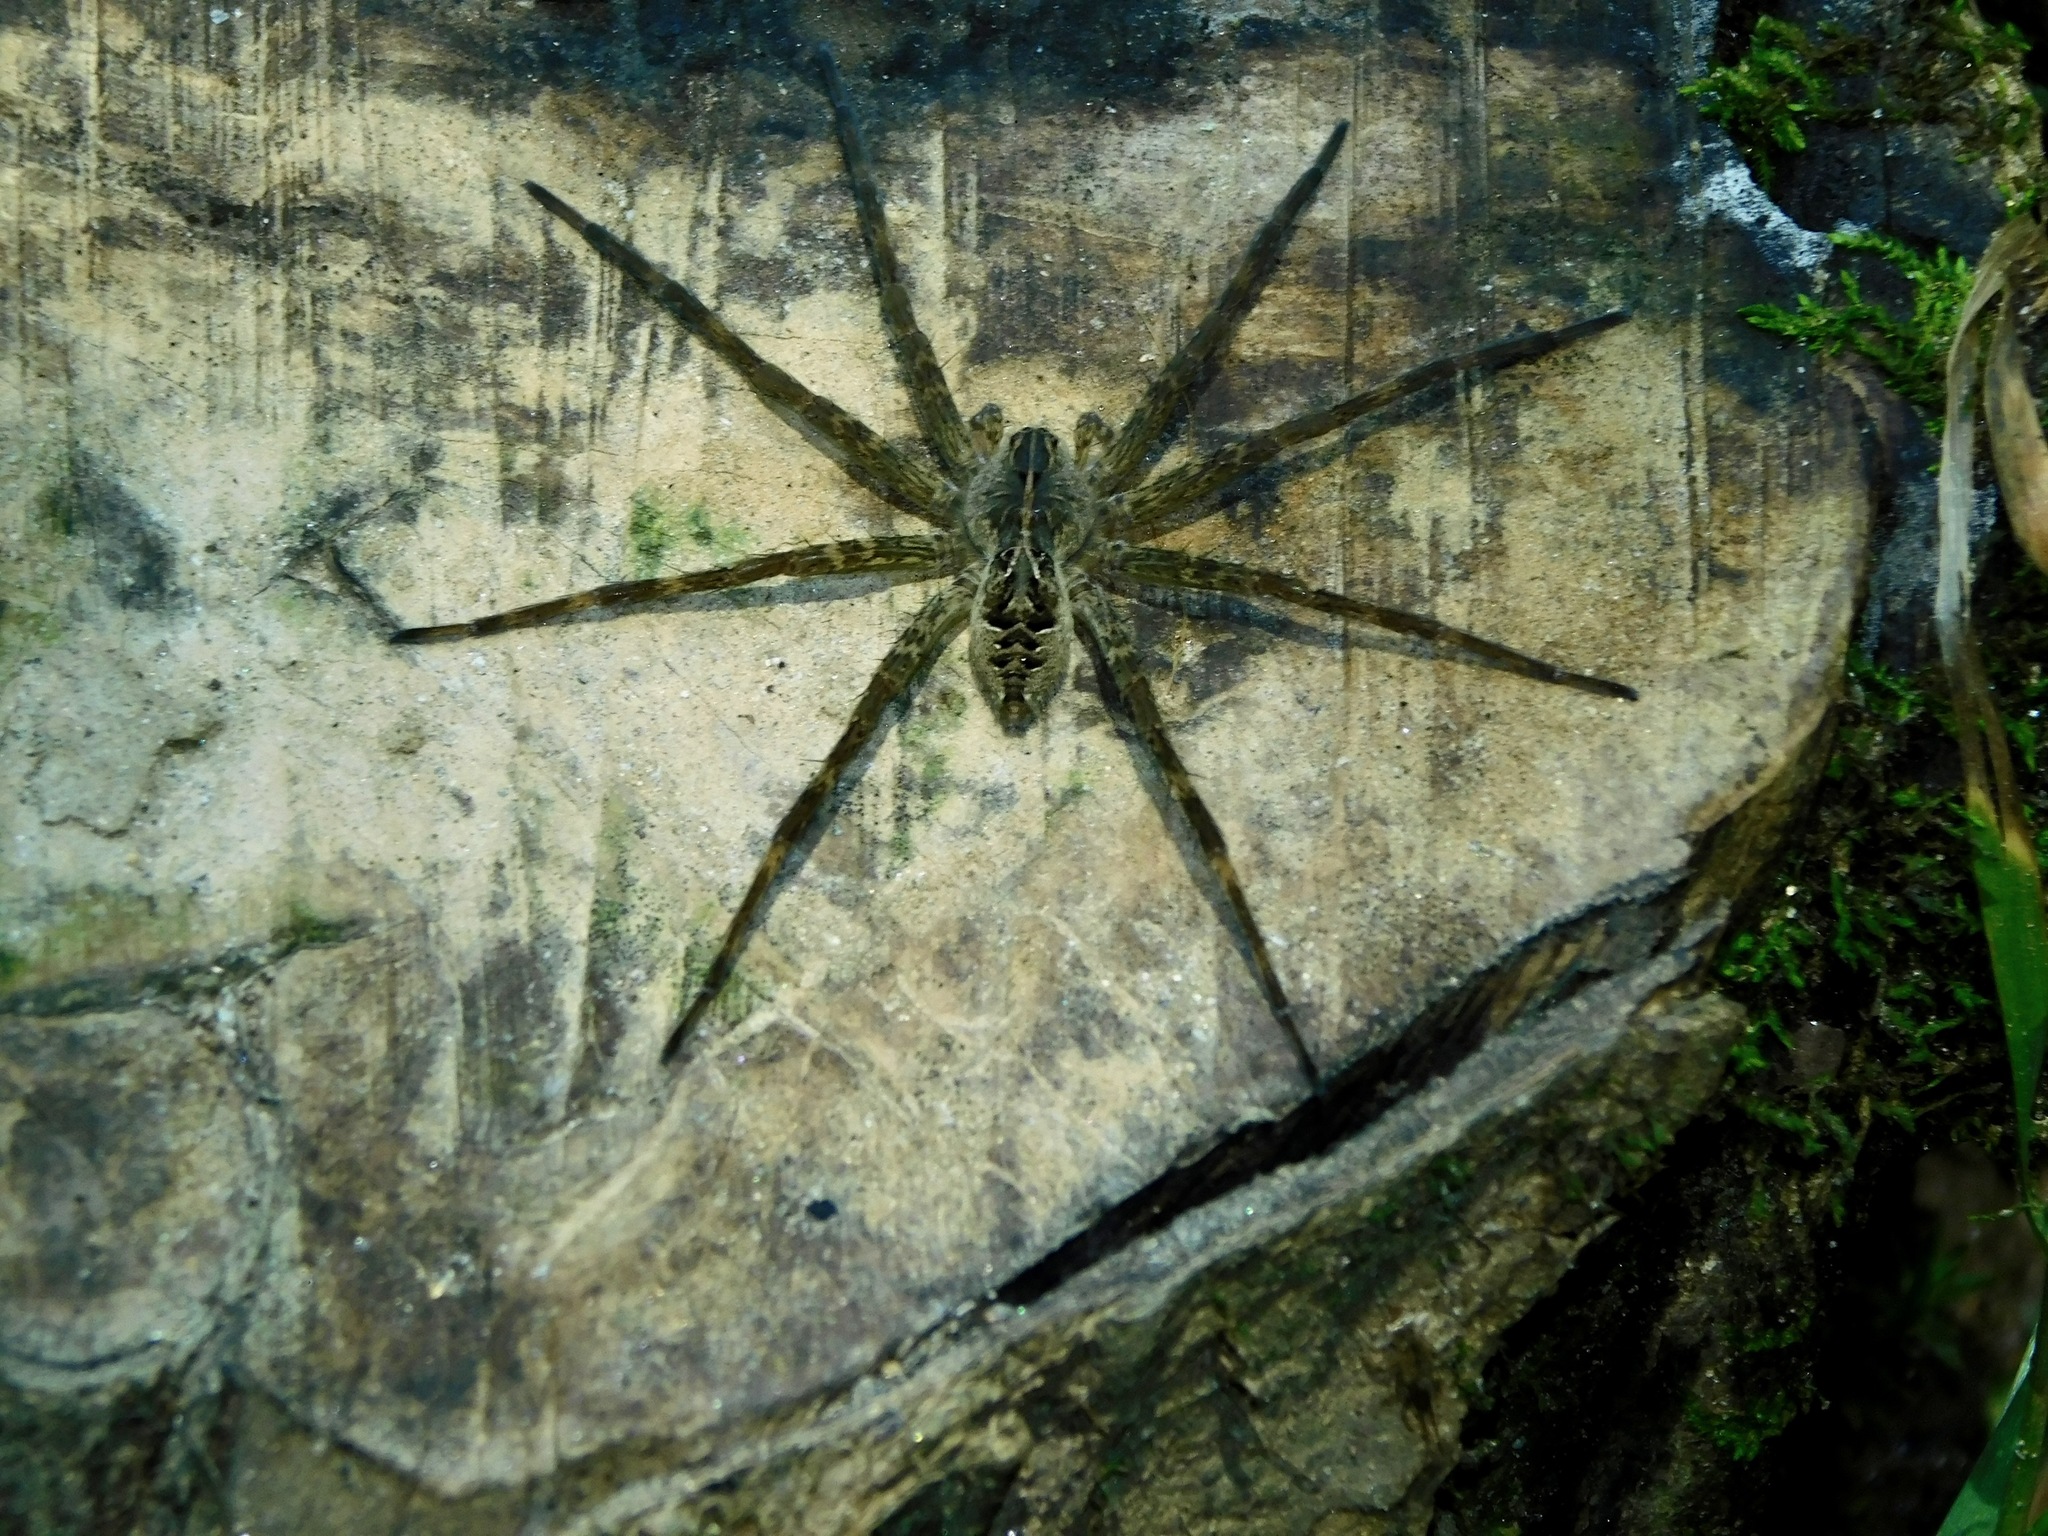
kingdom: Animalia
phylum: Arthropoda
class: Arachnida
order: Araneae
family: Pisauridae
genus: Dolomedes
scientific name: Dolomedes scriptus
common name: Striped fishing spider
